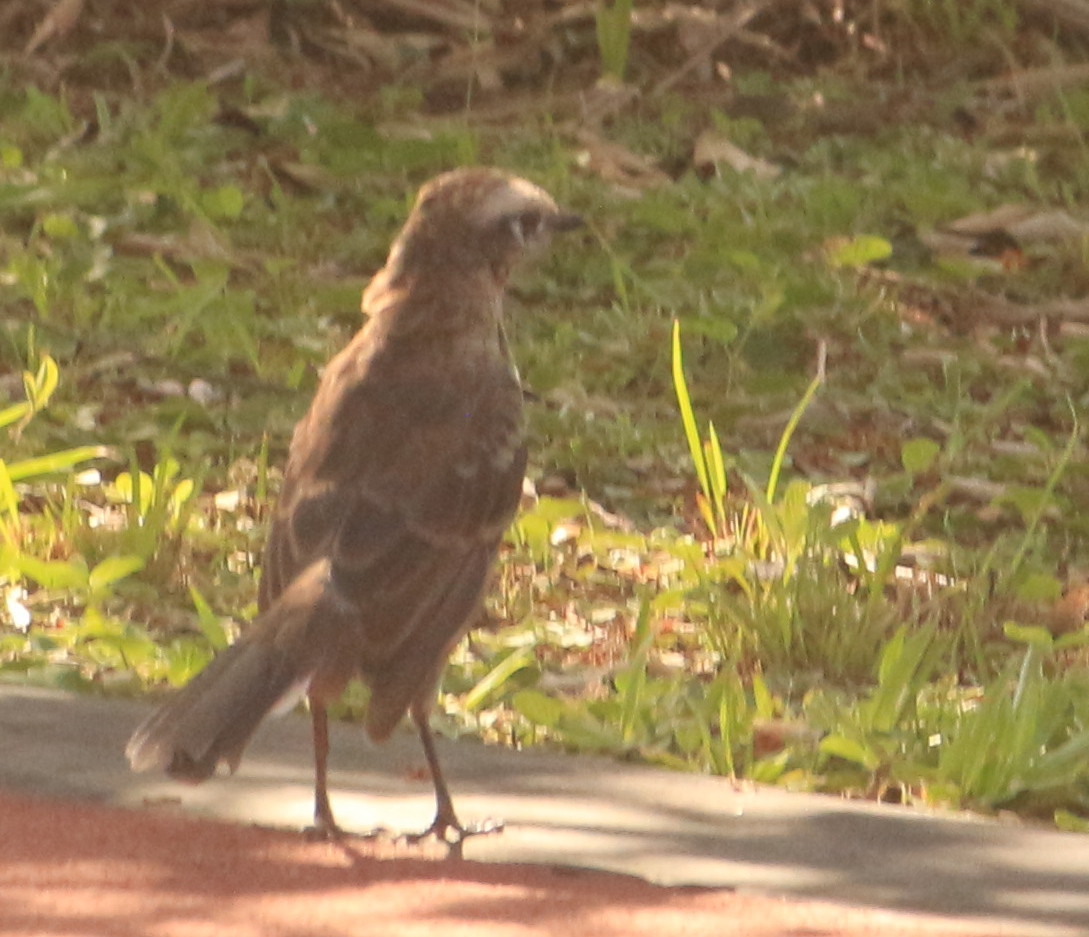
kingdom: Animalia
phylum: Chordata
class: Aves
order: Passeriformes
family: Mimidae
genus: Mimus
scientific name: Mimus saturninus
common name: Chalk-browed mockingbird
